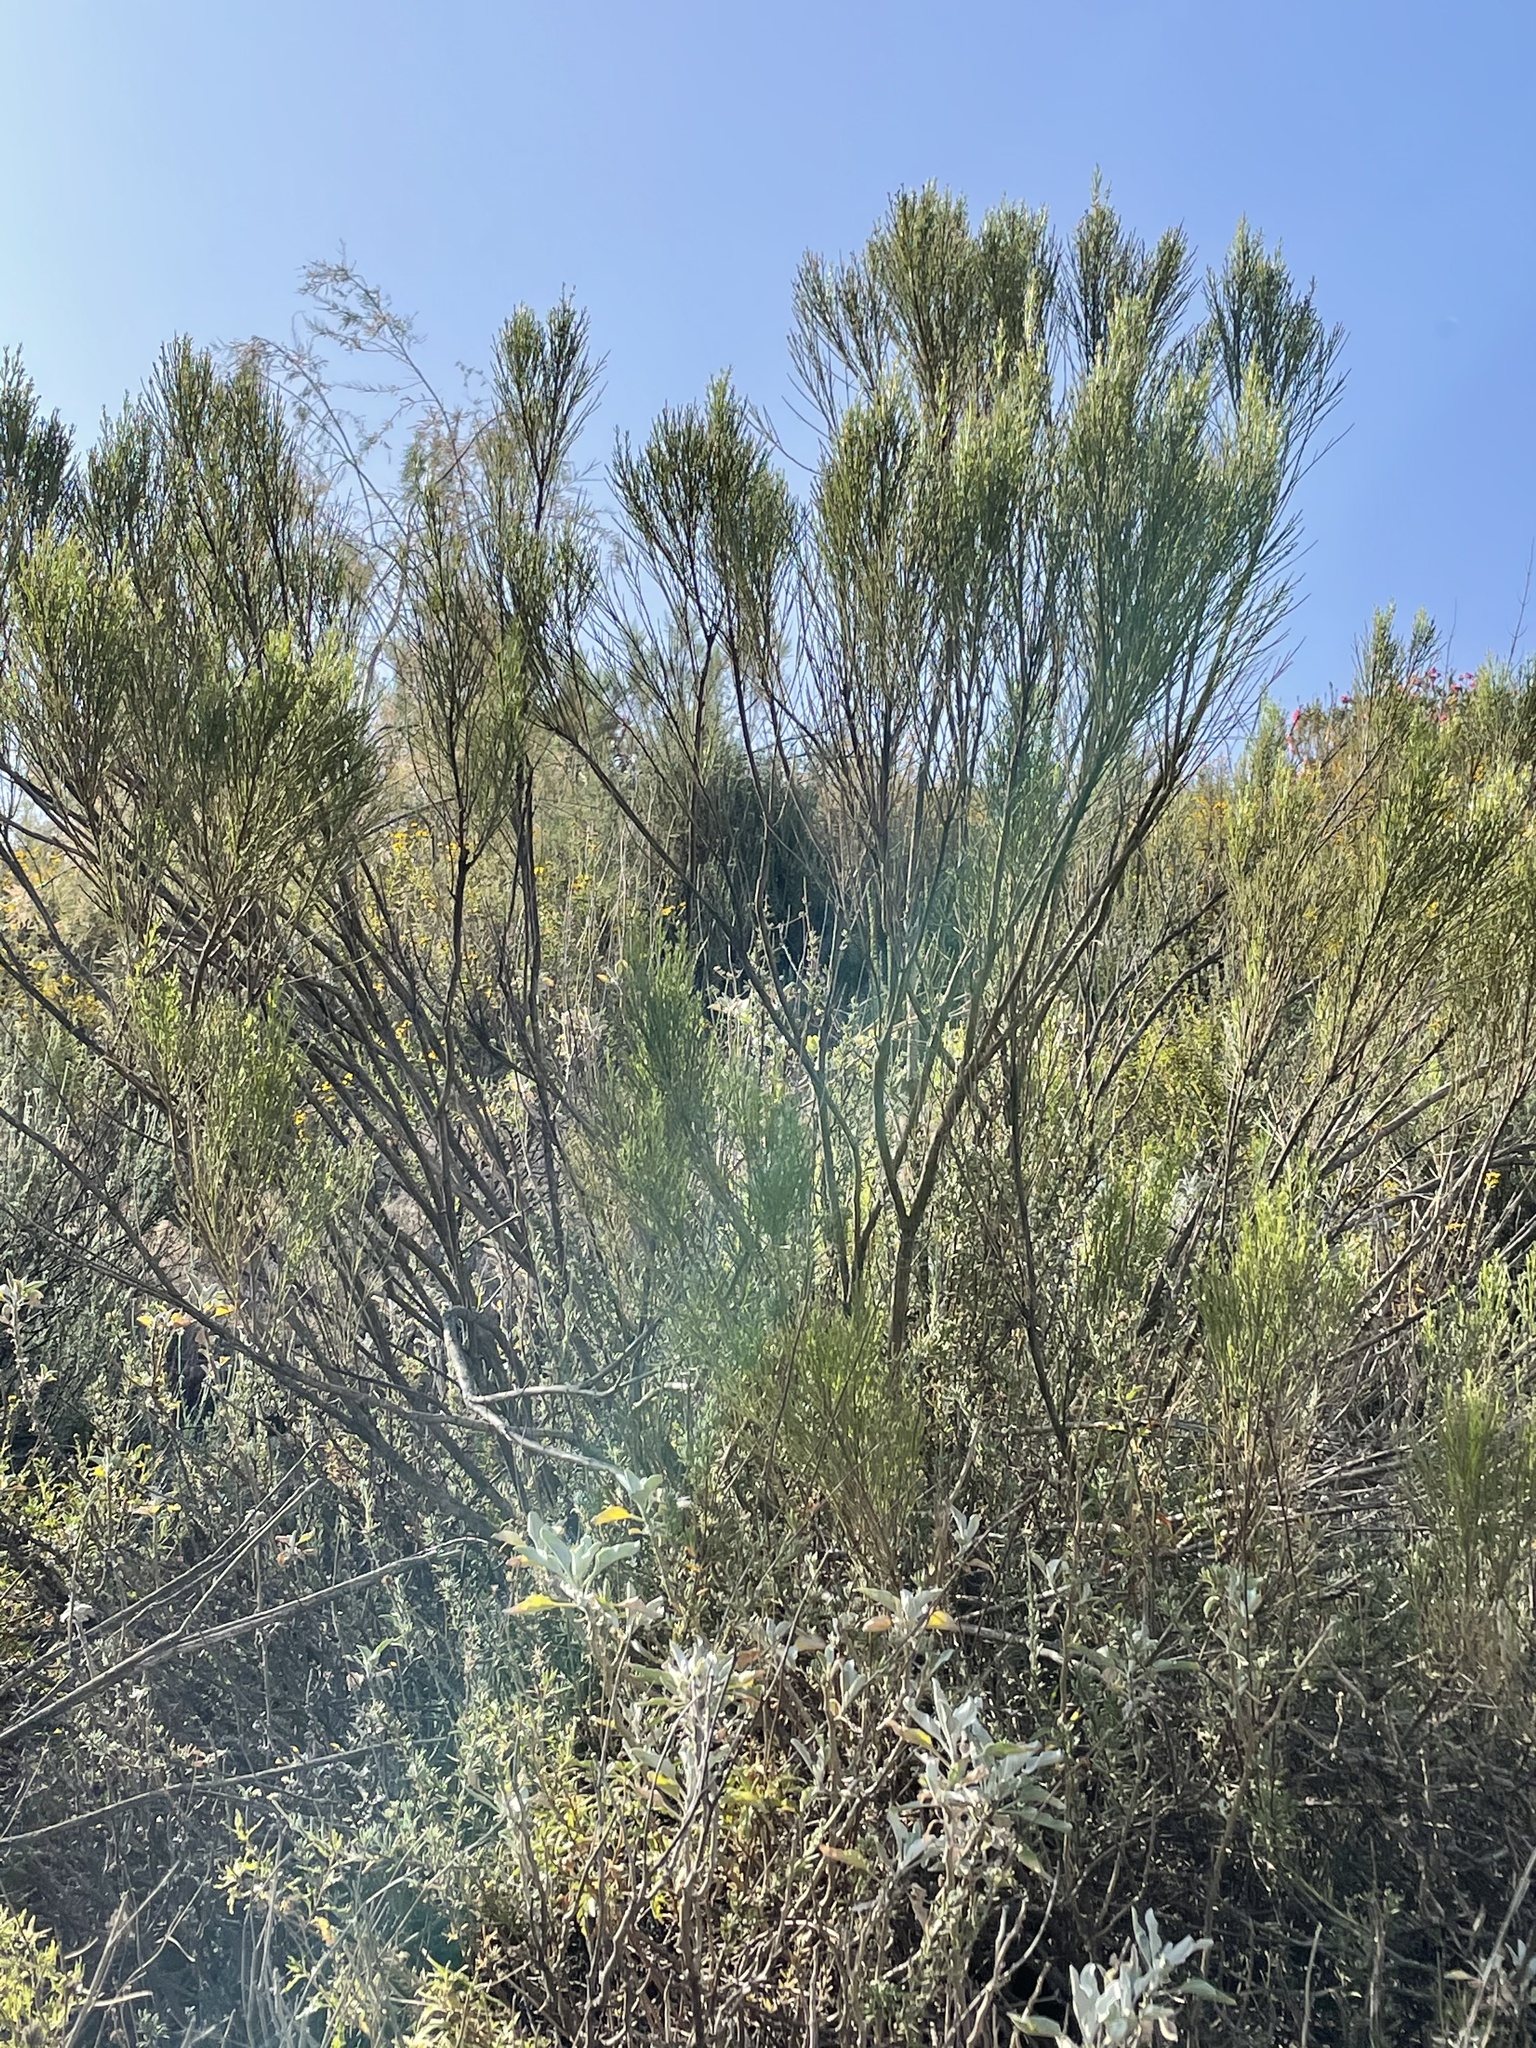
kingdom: Plantae
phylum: Tracheophyta
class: Magnoliopsida
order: Asterales
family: Asteraceae
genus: Baccharis
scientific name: Baccharis sarothroides
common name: Desert-broom
